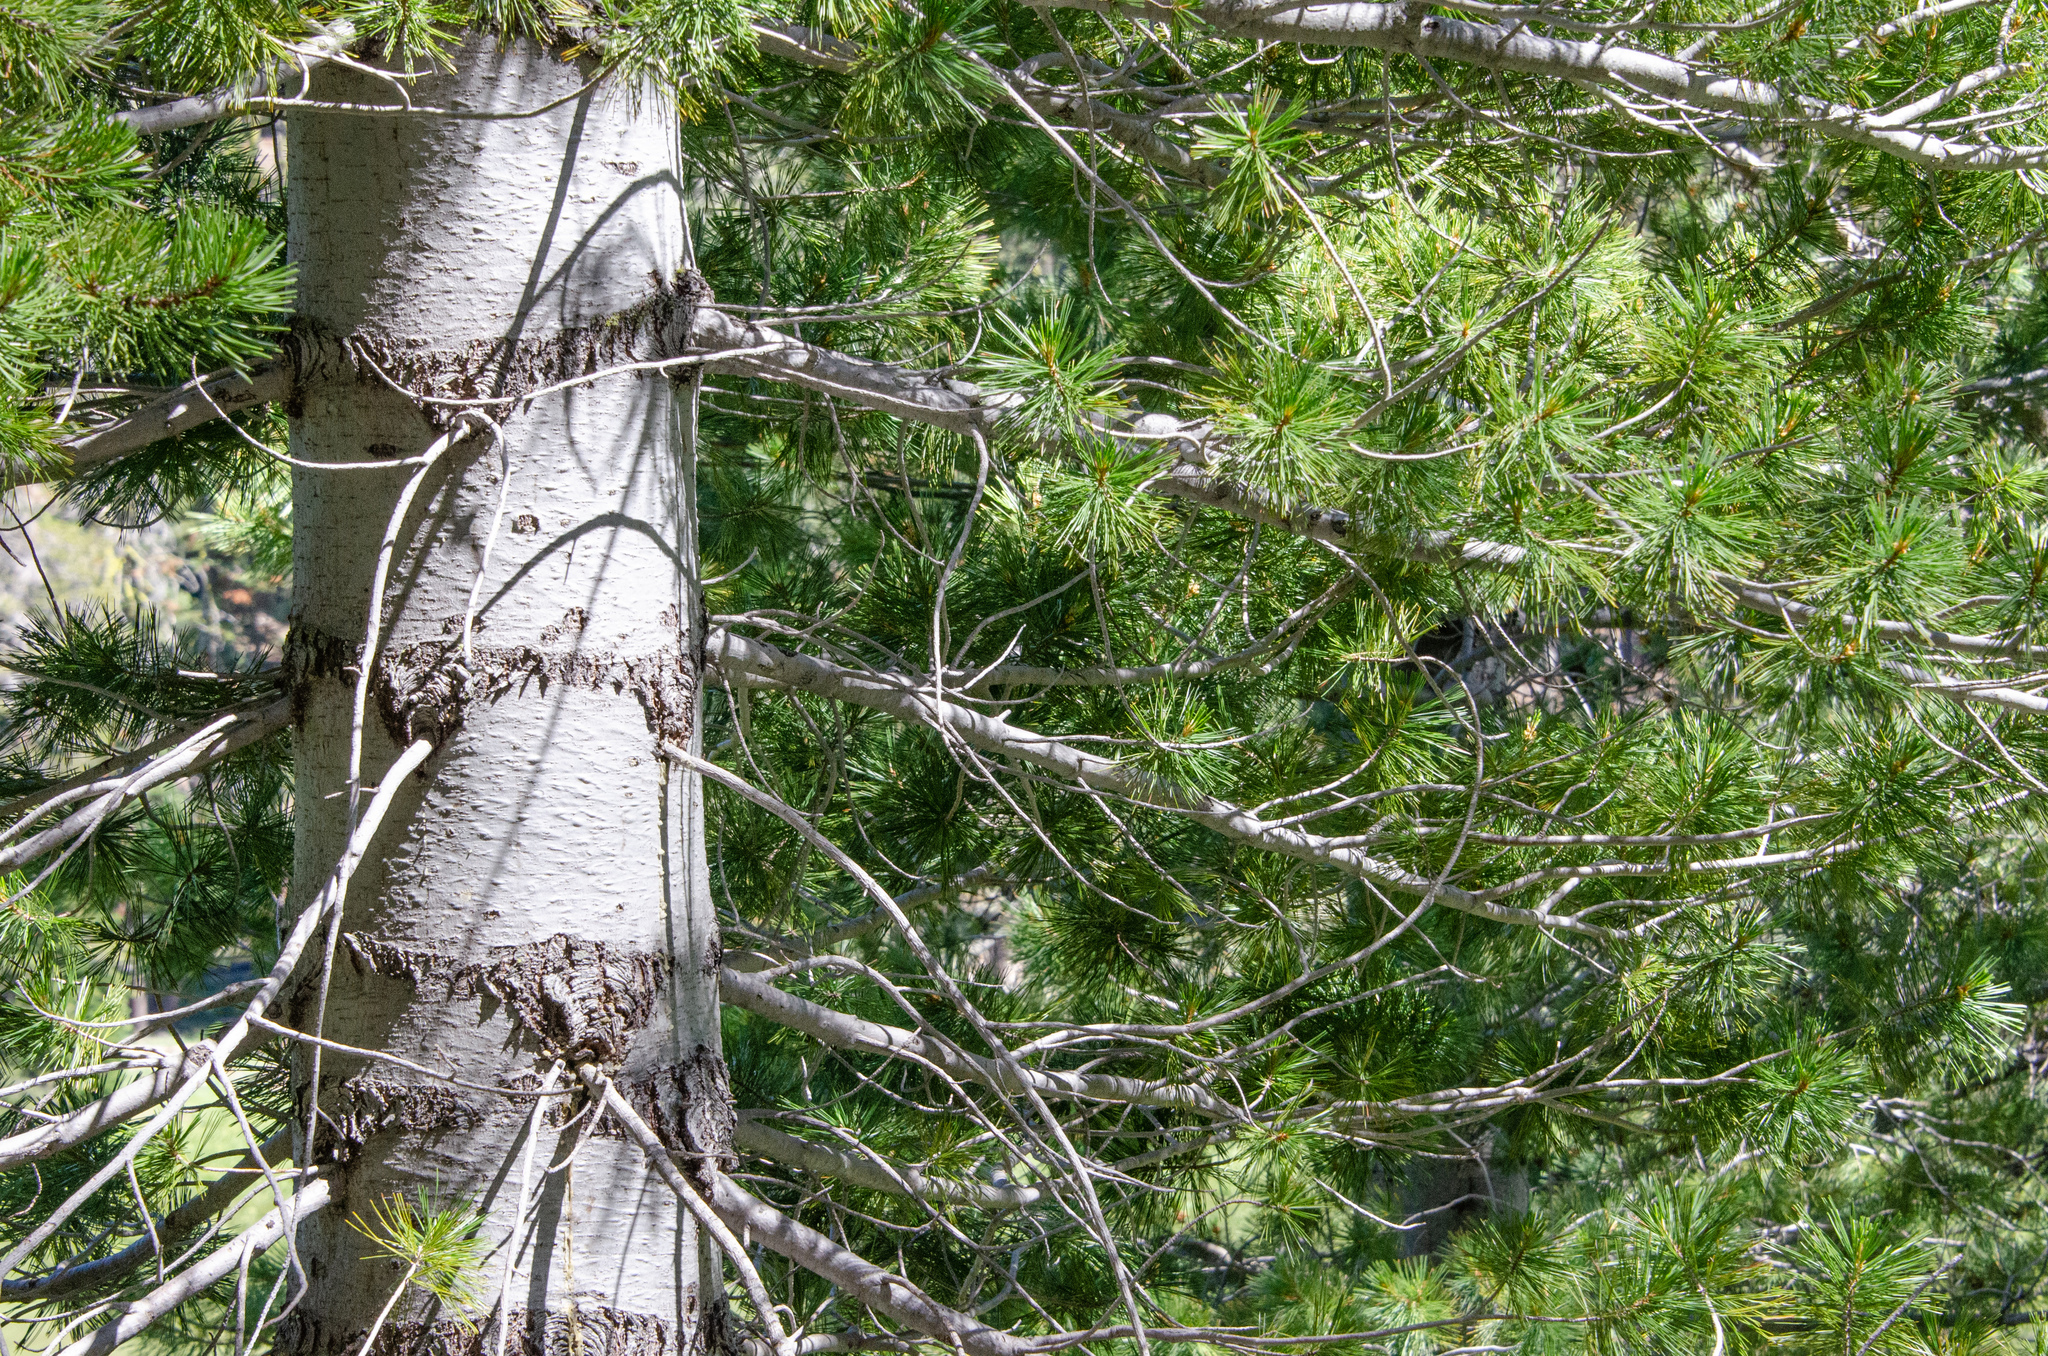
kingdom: Plantae
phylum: Tracheophyta
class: Pinopsida
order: Pinales
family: Pinaceae
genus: Pinus
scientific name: Pinus monticola
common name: Western white pine
